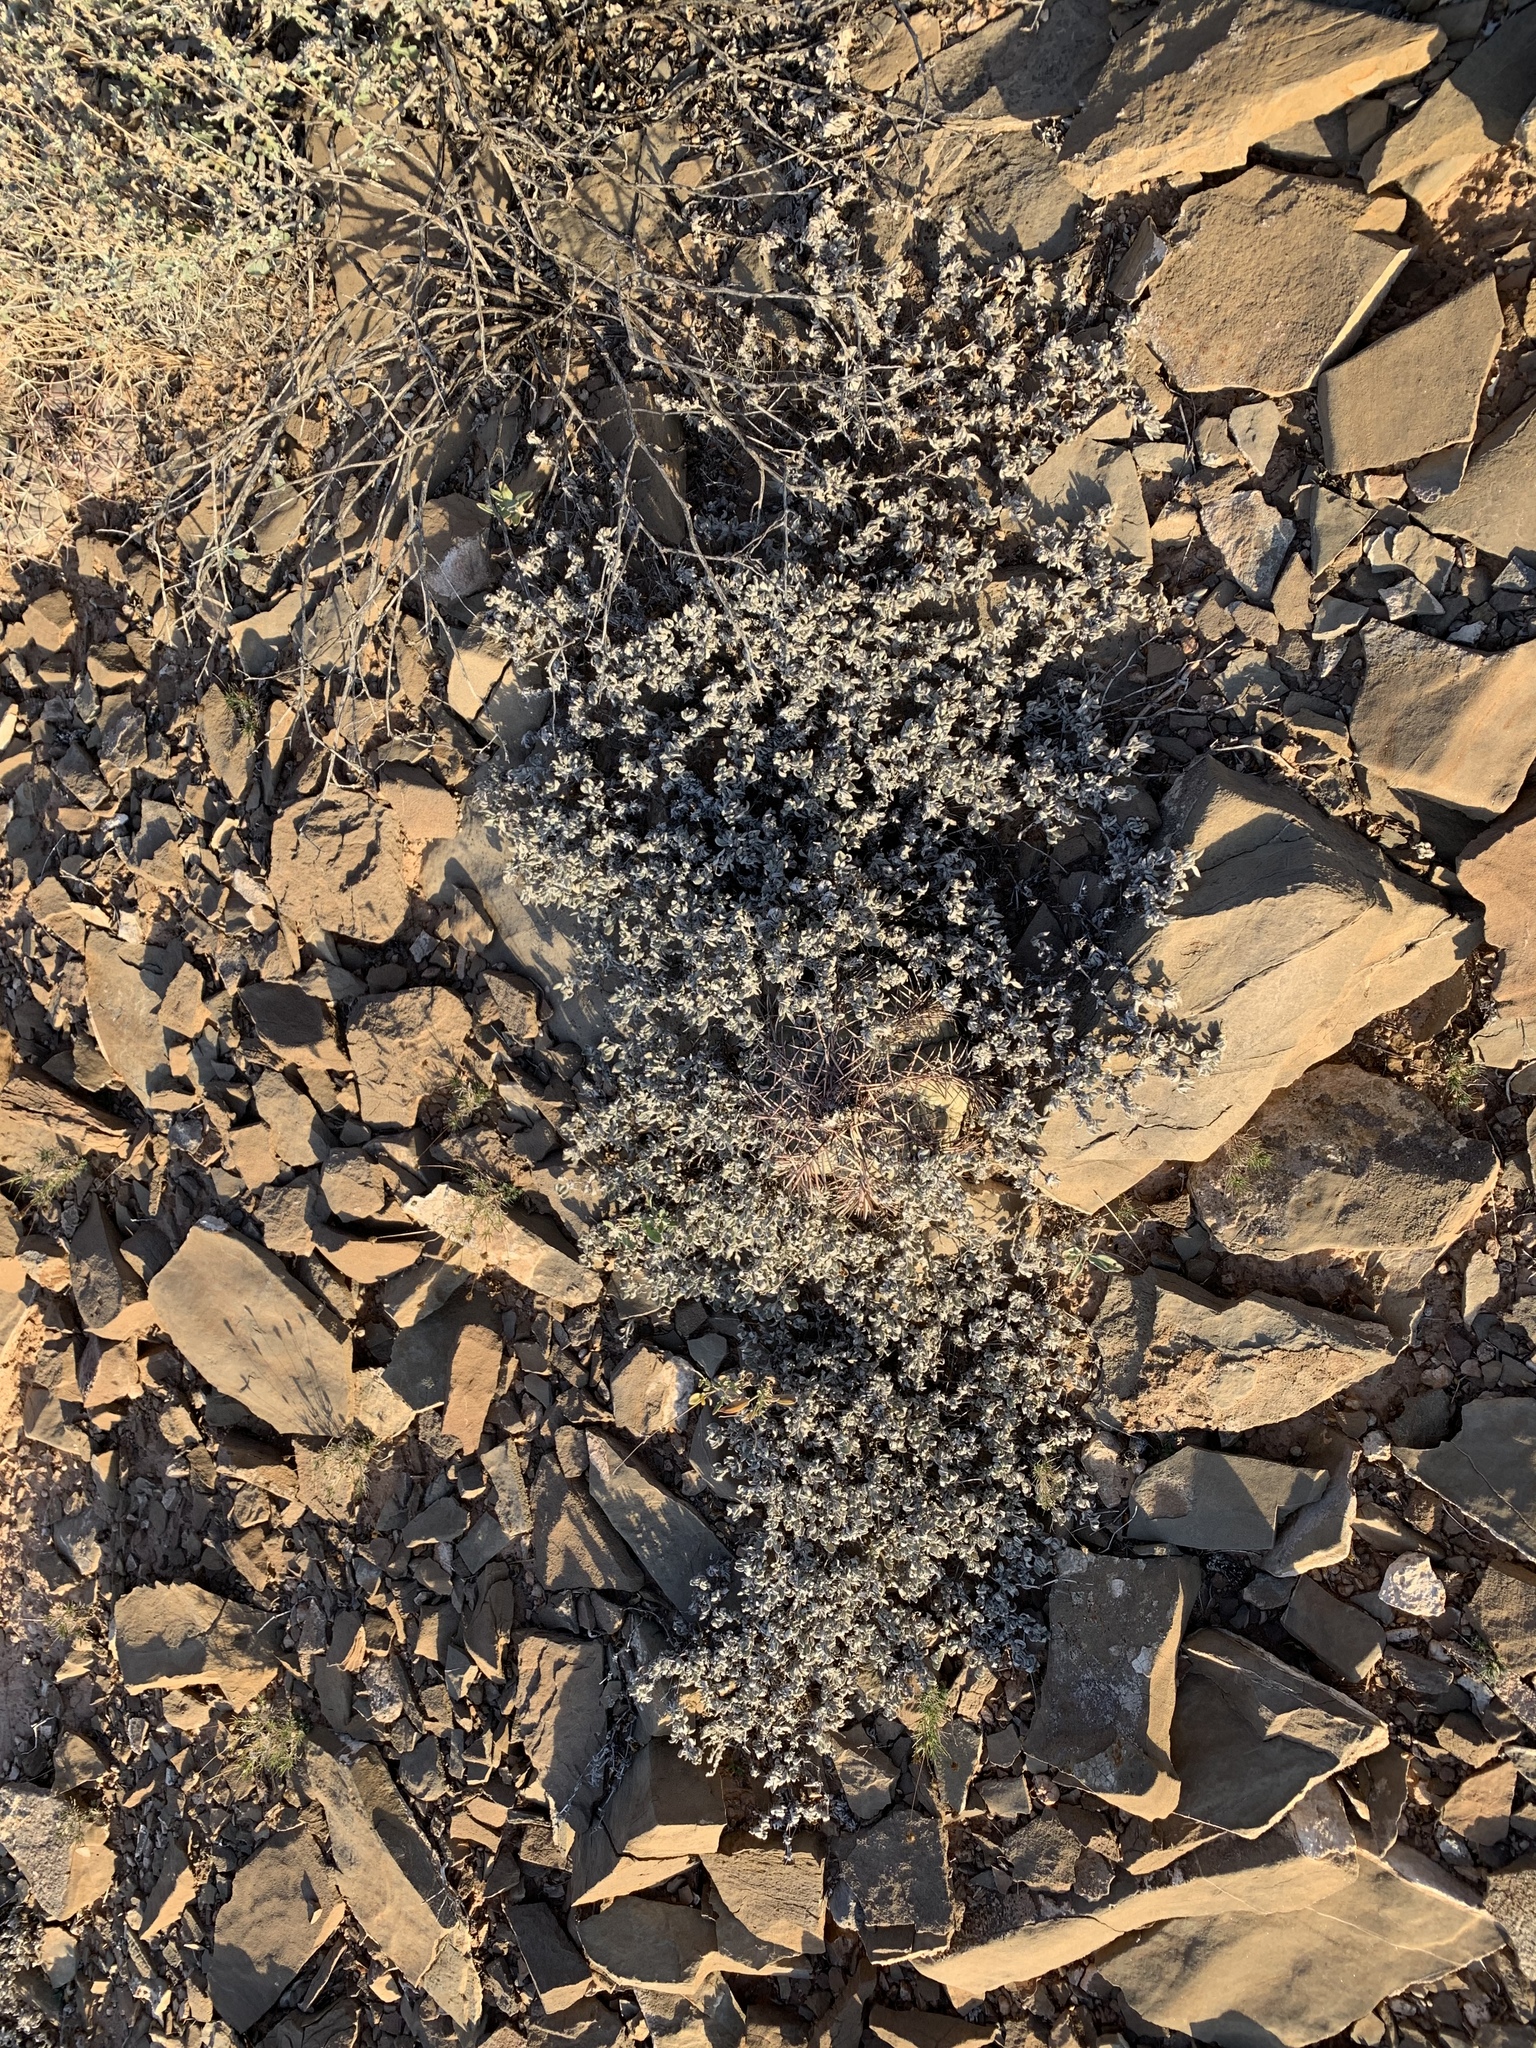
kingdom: Plantae
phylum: Tracheophyta
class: Magnoliopsida
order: Boraginales
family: Ehretiaceae
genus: Tiquilia
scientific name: Tiquilia canescens
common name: Hairy tiquilia
